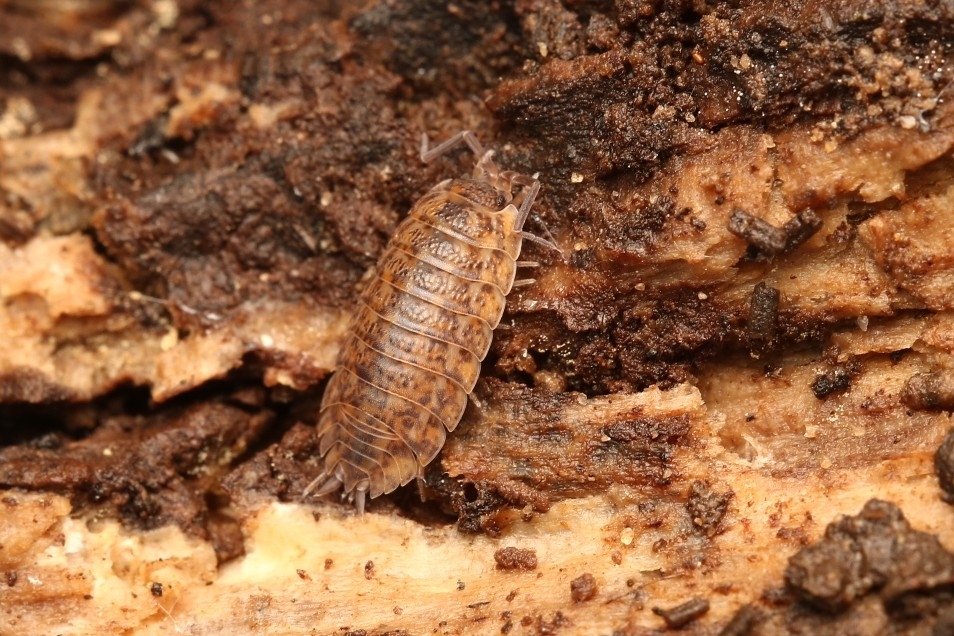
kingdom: Animalia
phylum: Arthropoda
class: Malacostraca
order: Isopoda
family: Trachelipodidae
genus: Trachelipus
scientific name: Trachelipus rathkii
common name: Isopod
